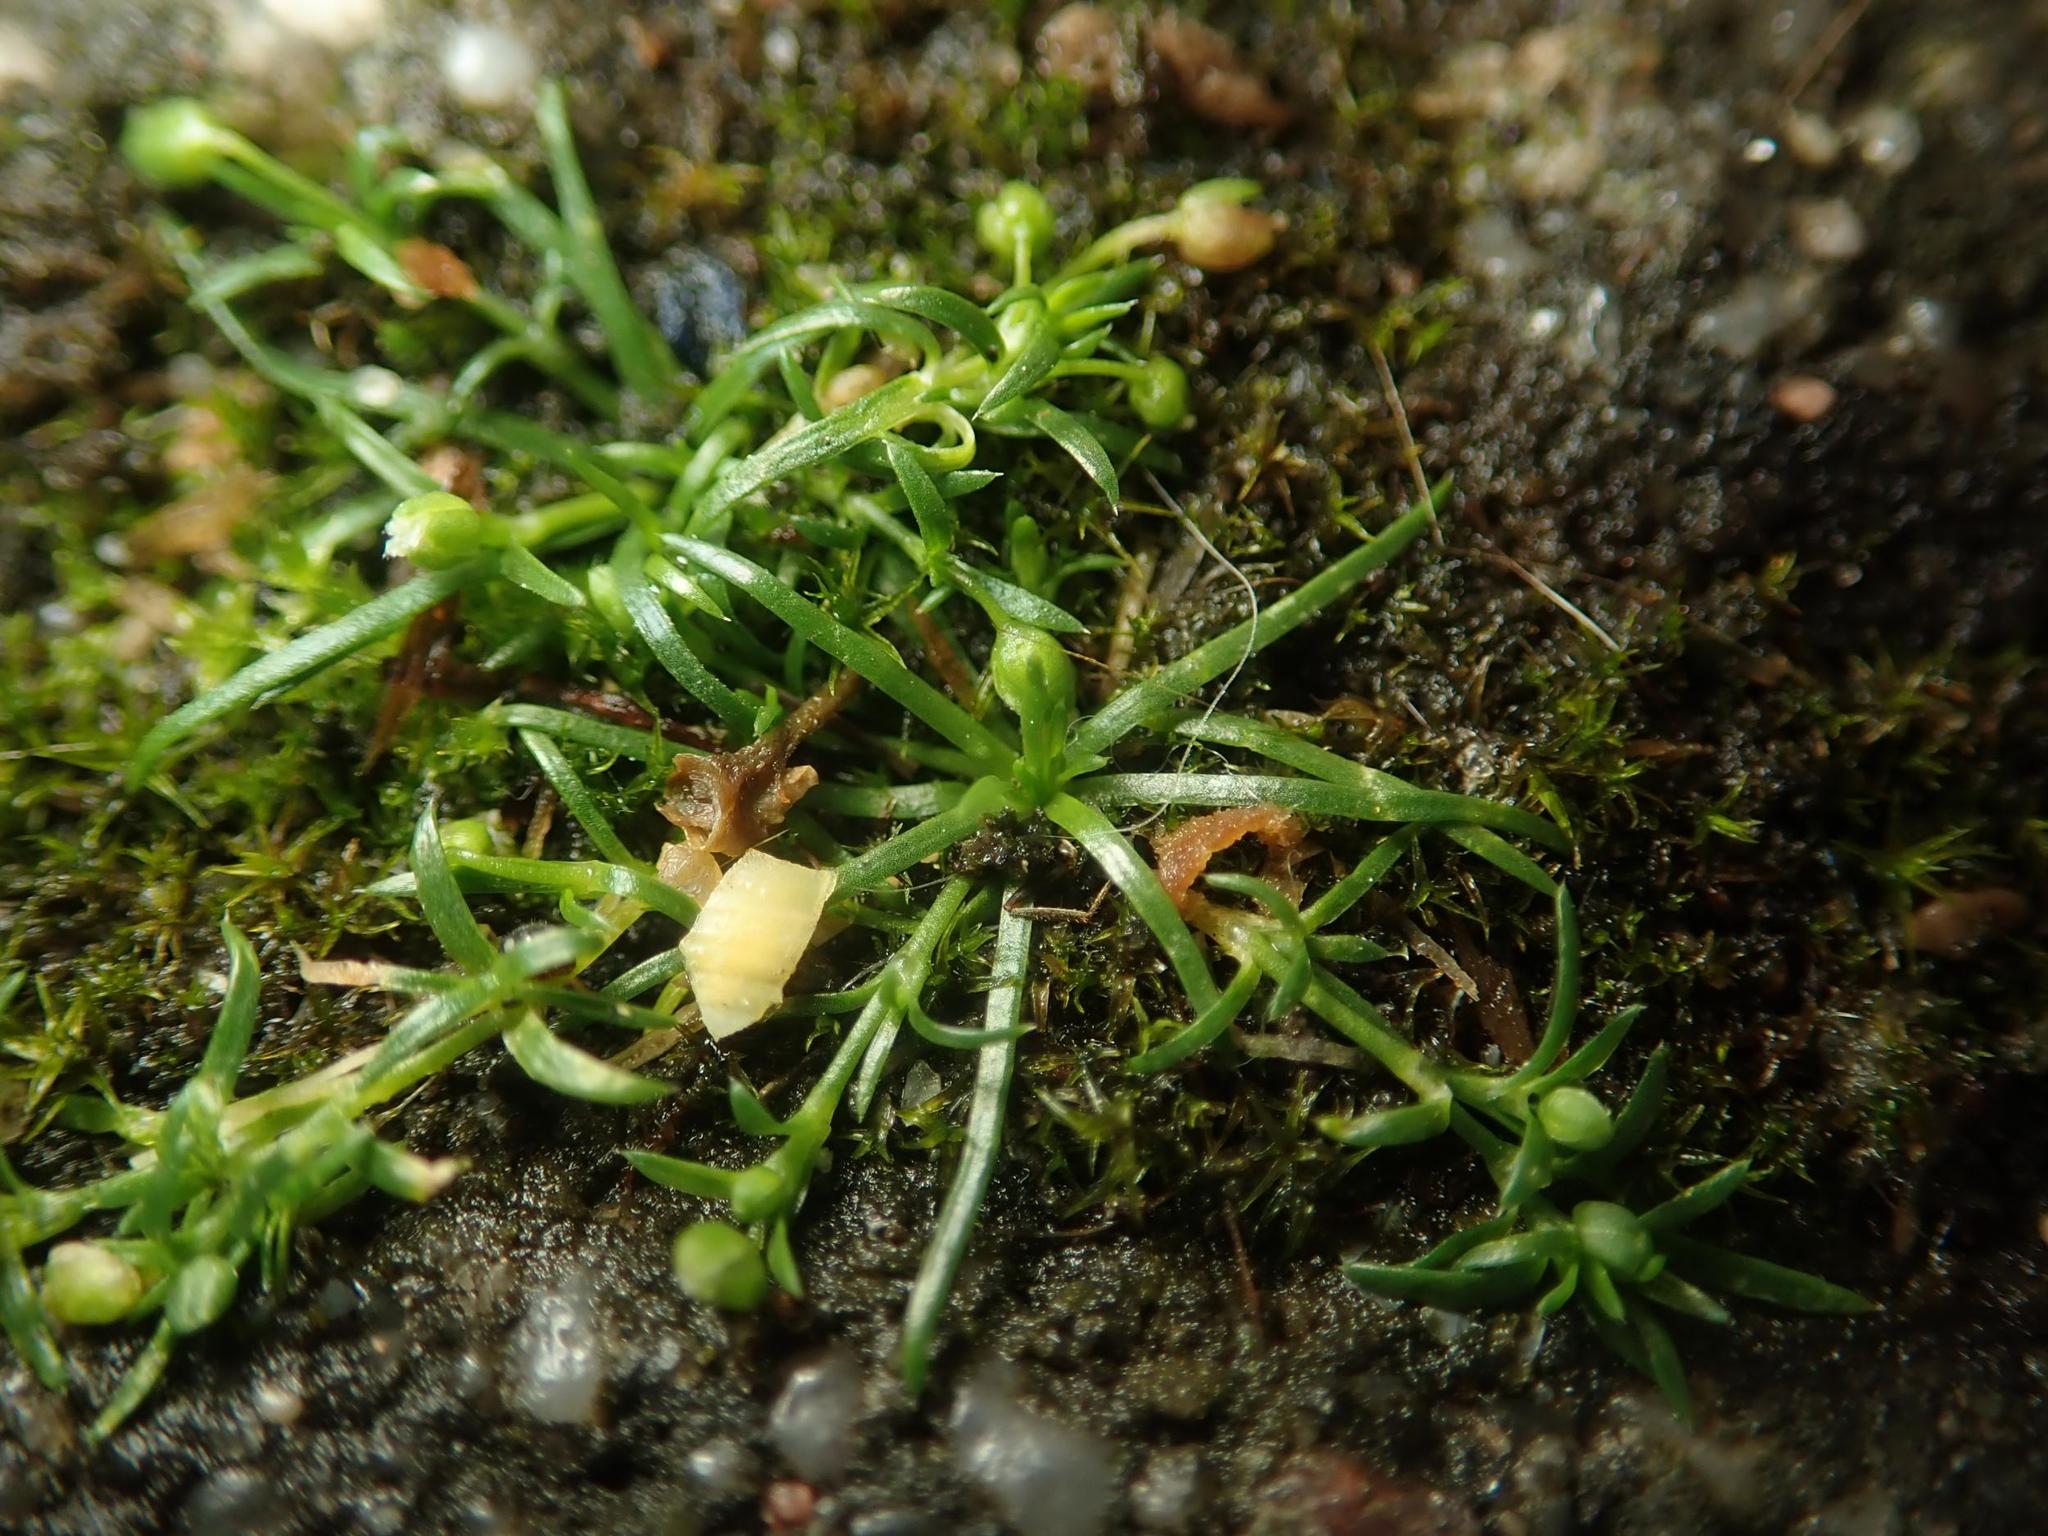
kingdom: Plantae
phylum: Tracheophyta
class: Magnoliopsida
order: Caryophyllales
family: Caryophyllaceae
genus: Sagina
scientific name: Sagina procumbens
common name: Procumbent pearlwort
